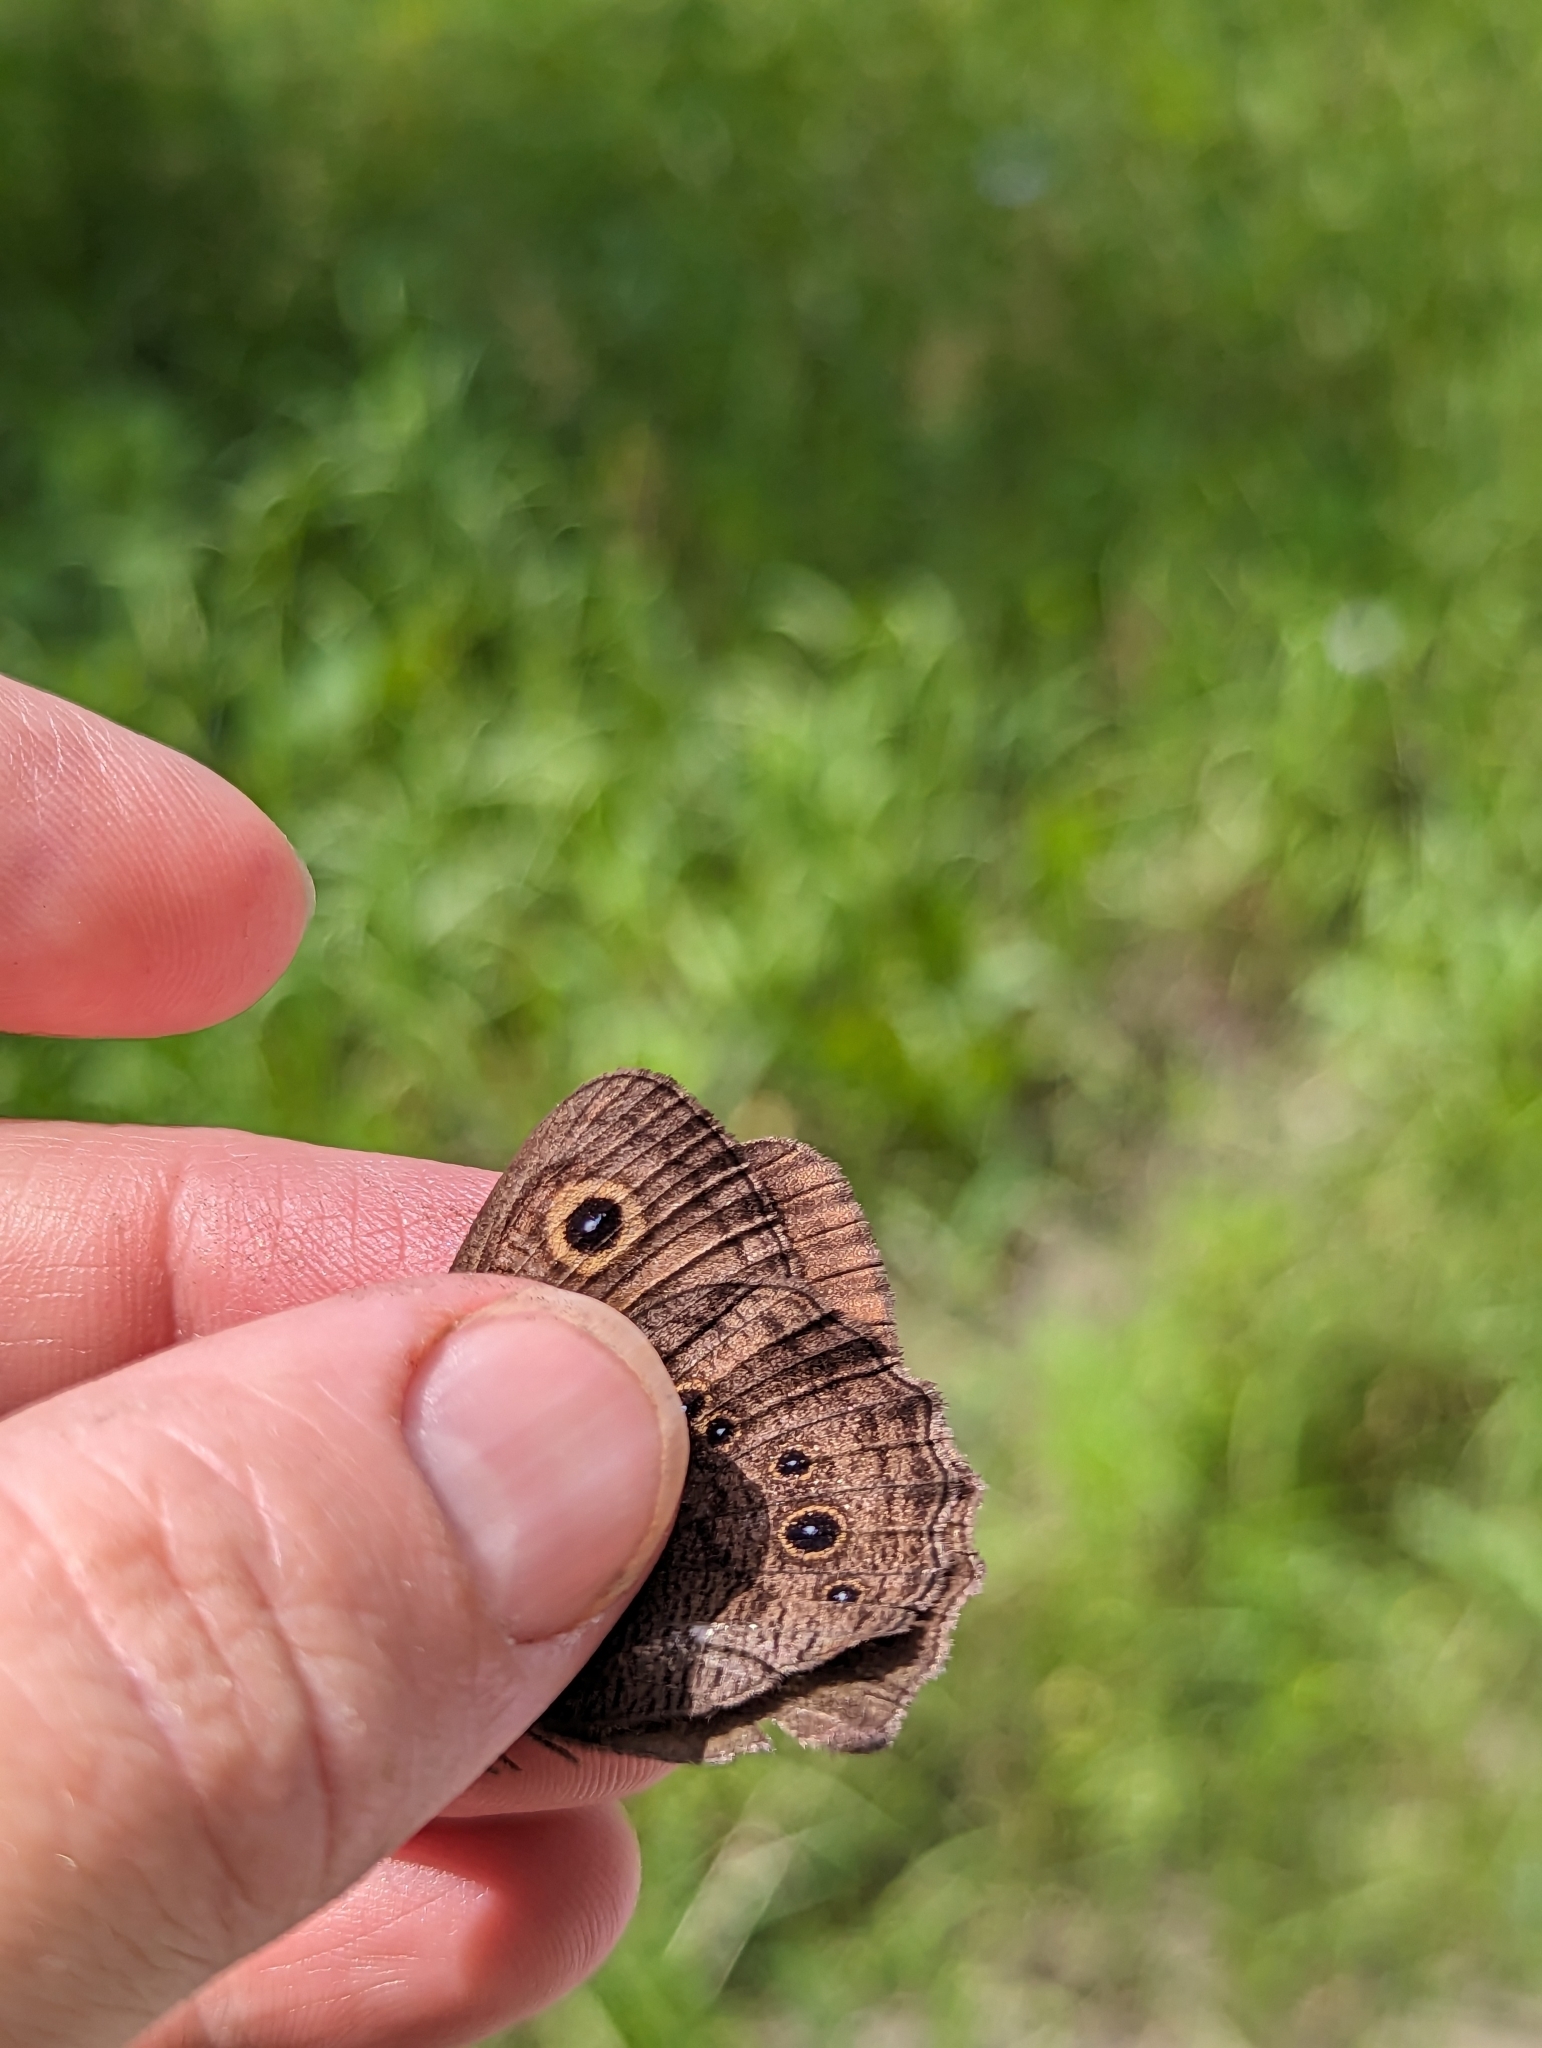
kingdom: Animalia
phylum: Arthropoda
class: Insecta
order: Lepidoptera
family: Nymphalidae
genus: Cercyonis
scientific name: Cercyonis pegala
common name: Common wood-nymph
